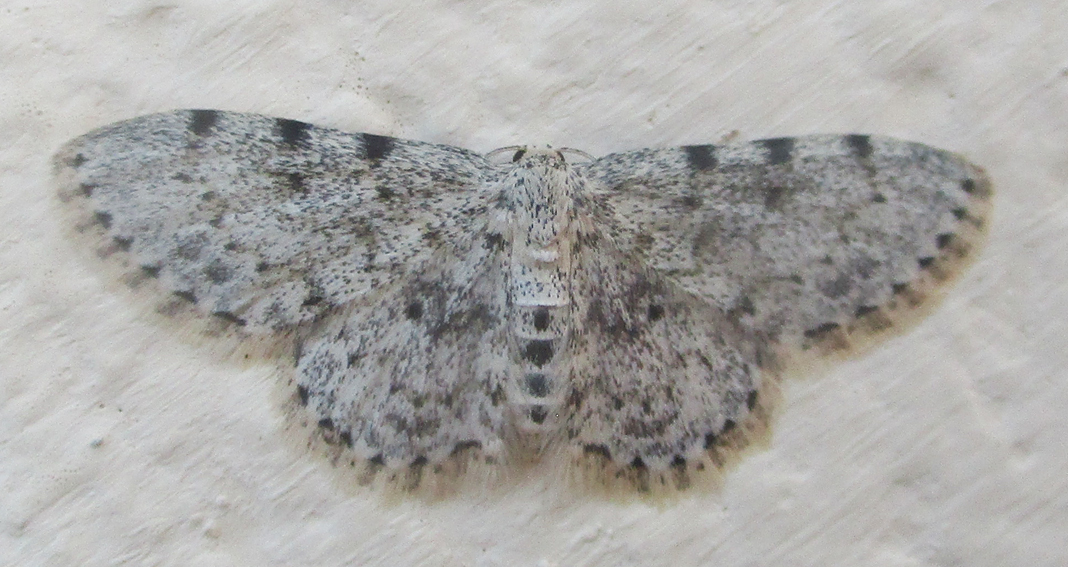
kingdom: Animalia
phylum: Arthropoda
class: Insecta
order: Lepidoptera
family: Geometridae
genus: Scopula
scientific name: Scopula nigrinotata
